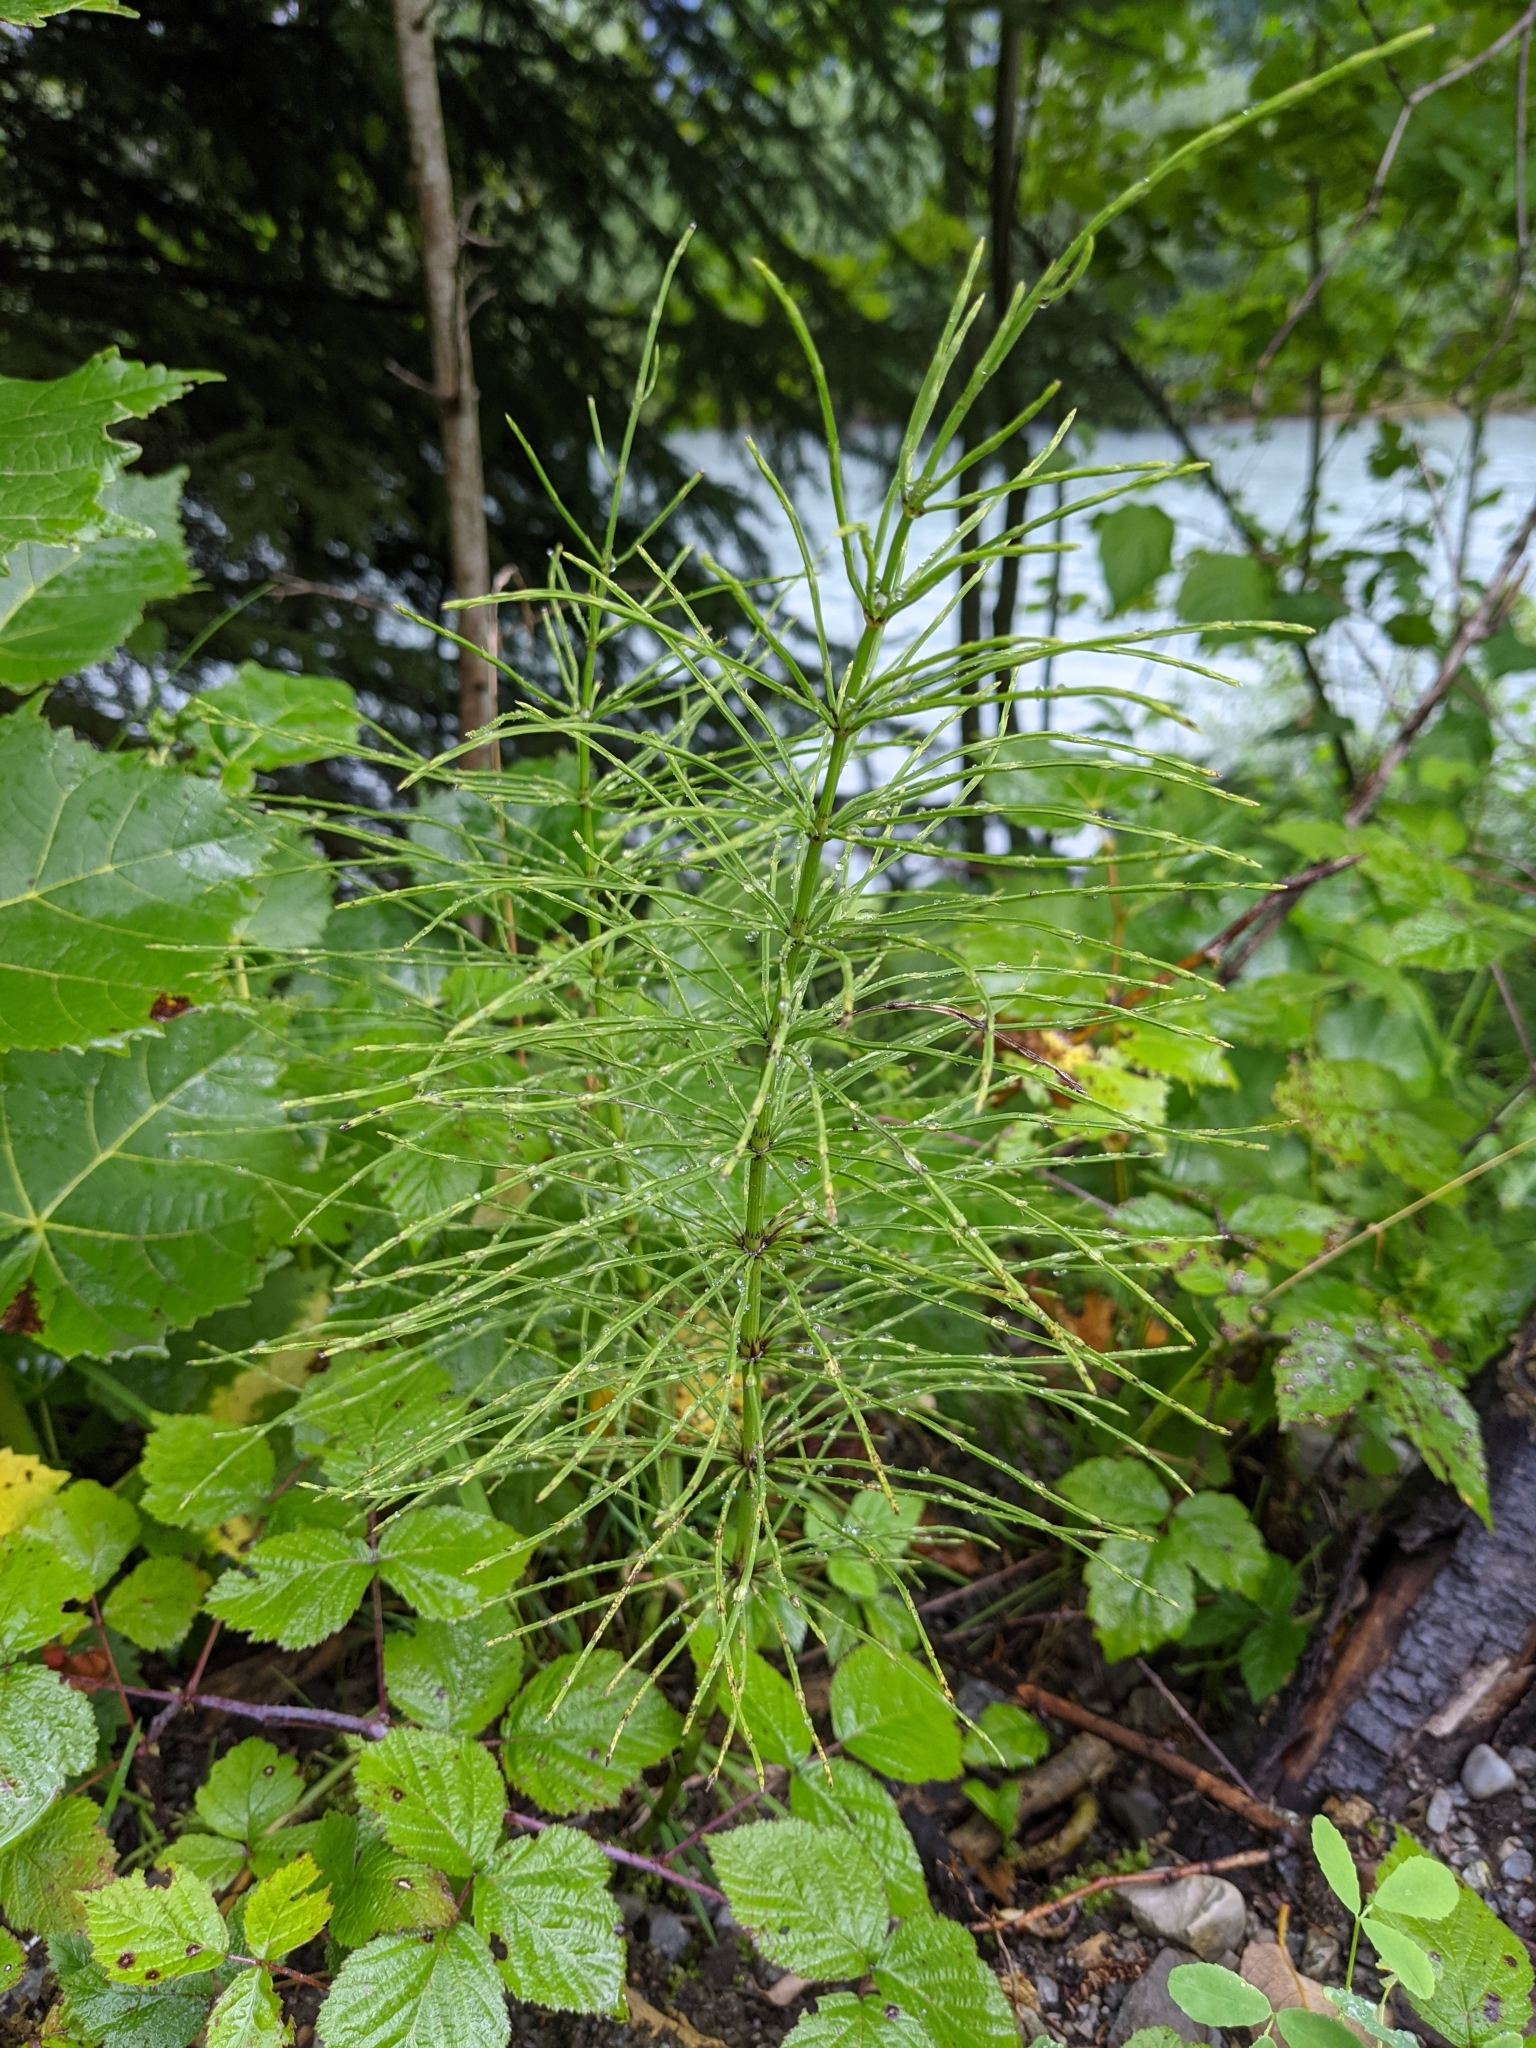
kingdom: Plantae
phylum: Tracheophyta
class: Polypodiopsida
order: Equisetales
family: Equisetaceae
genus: Equisetum
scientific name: Equisetum arvense
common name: Field horsetail
